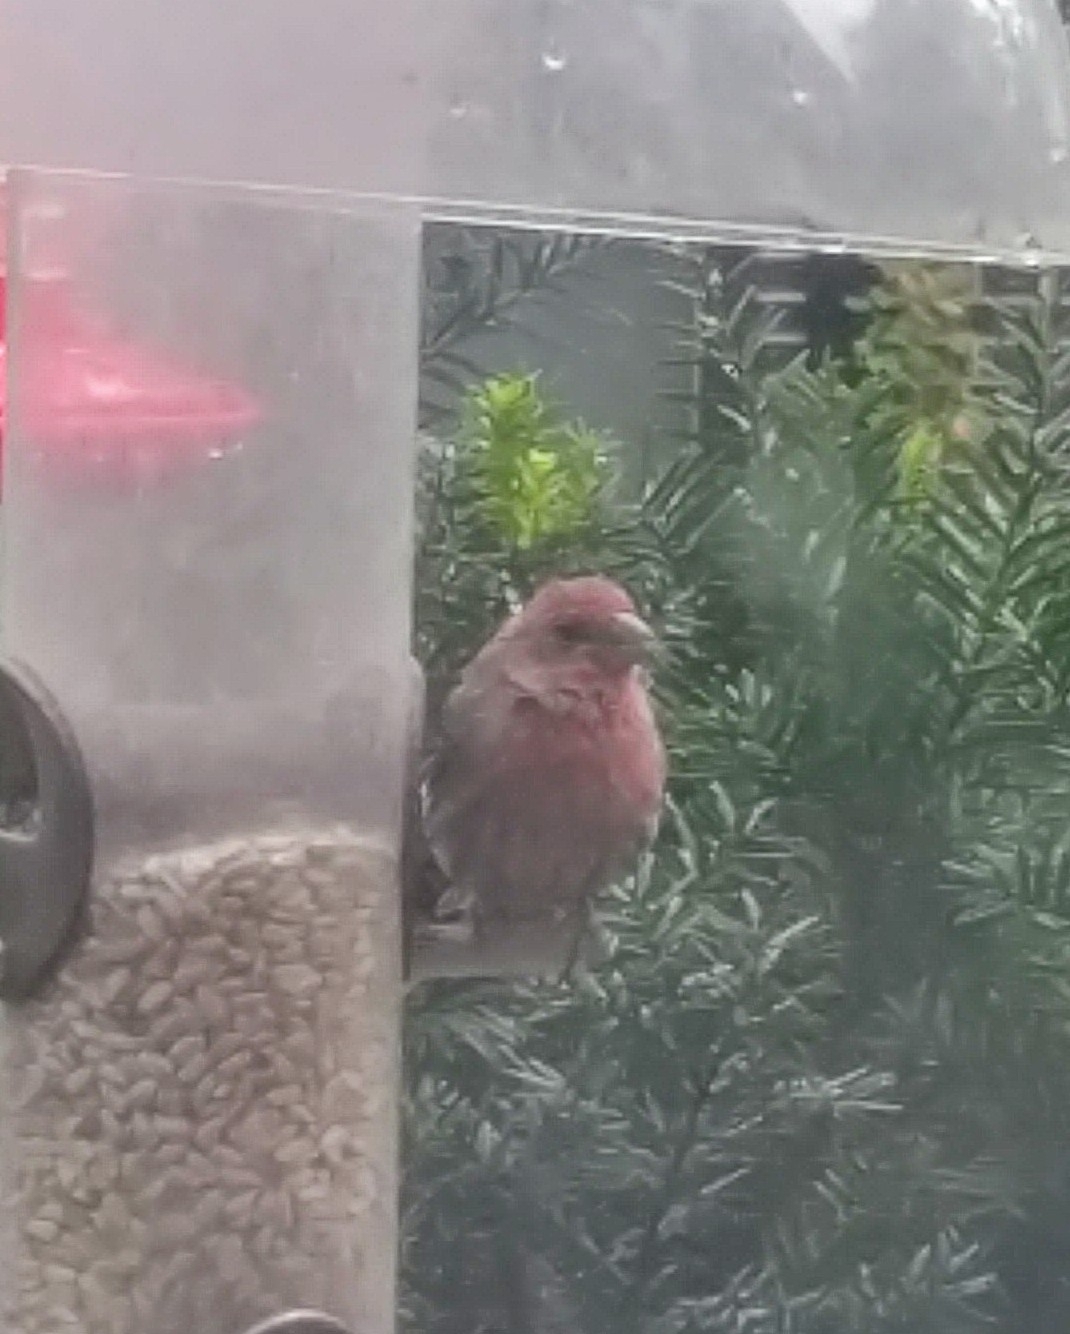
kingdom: Animalia
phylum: Chordata
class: Aves
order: Passeriformes
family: Fringillidae
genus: Haemorhous
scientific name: Haemorhous mexicanus
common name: House finch
